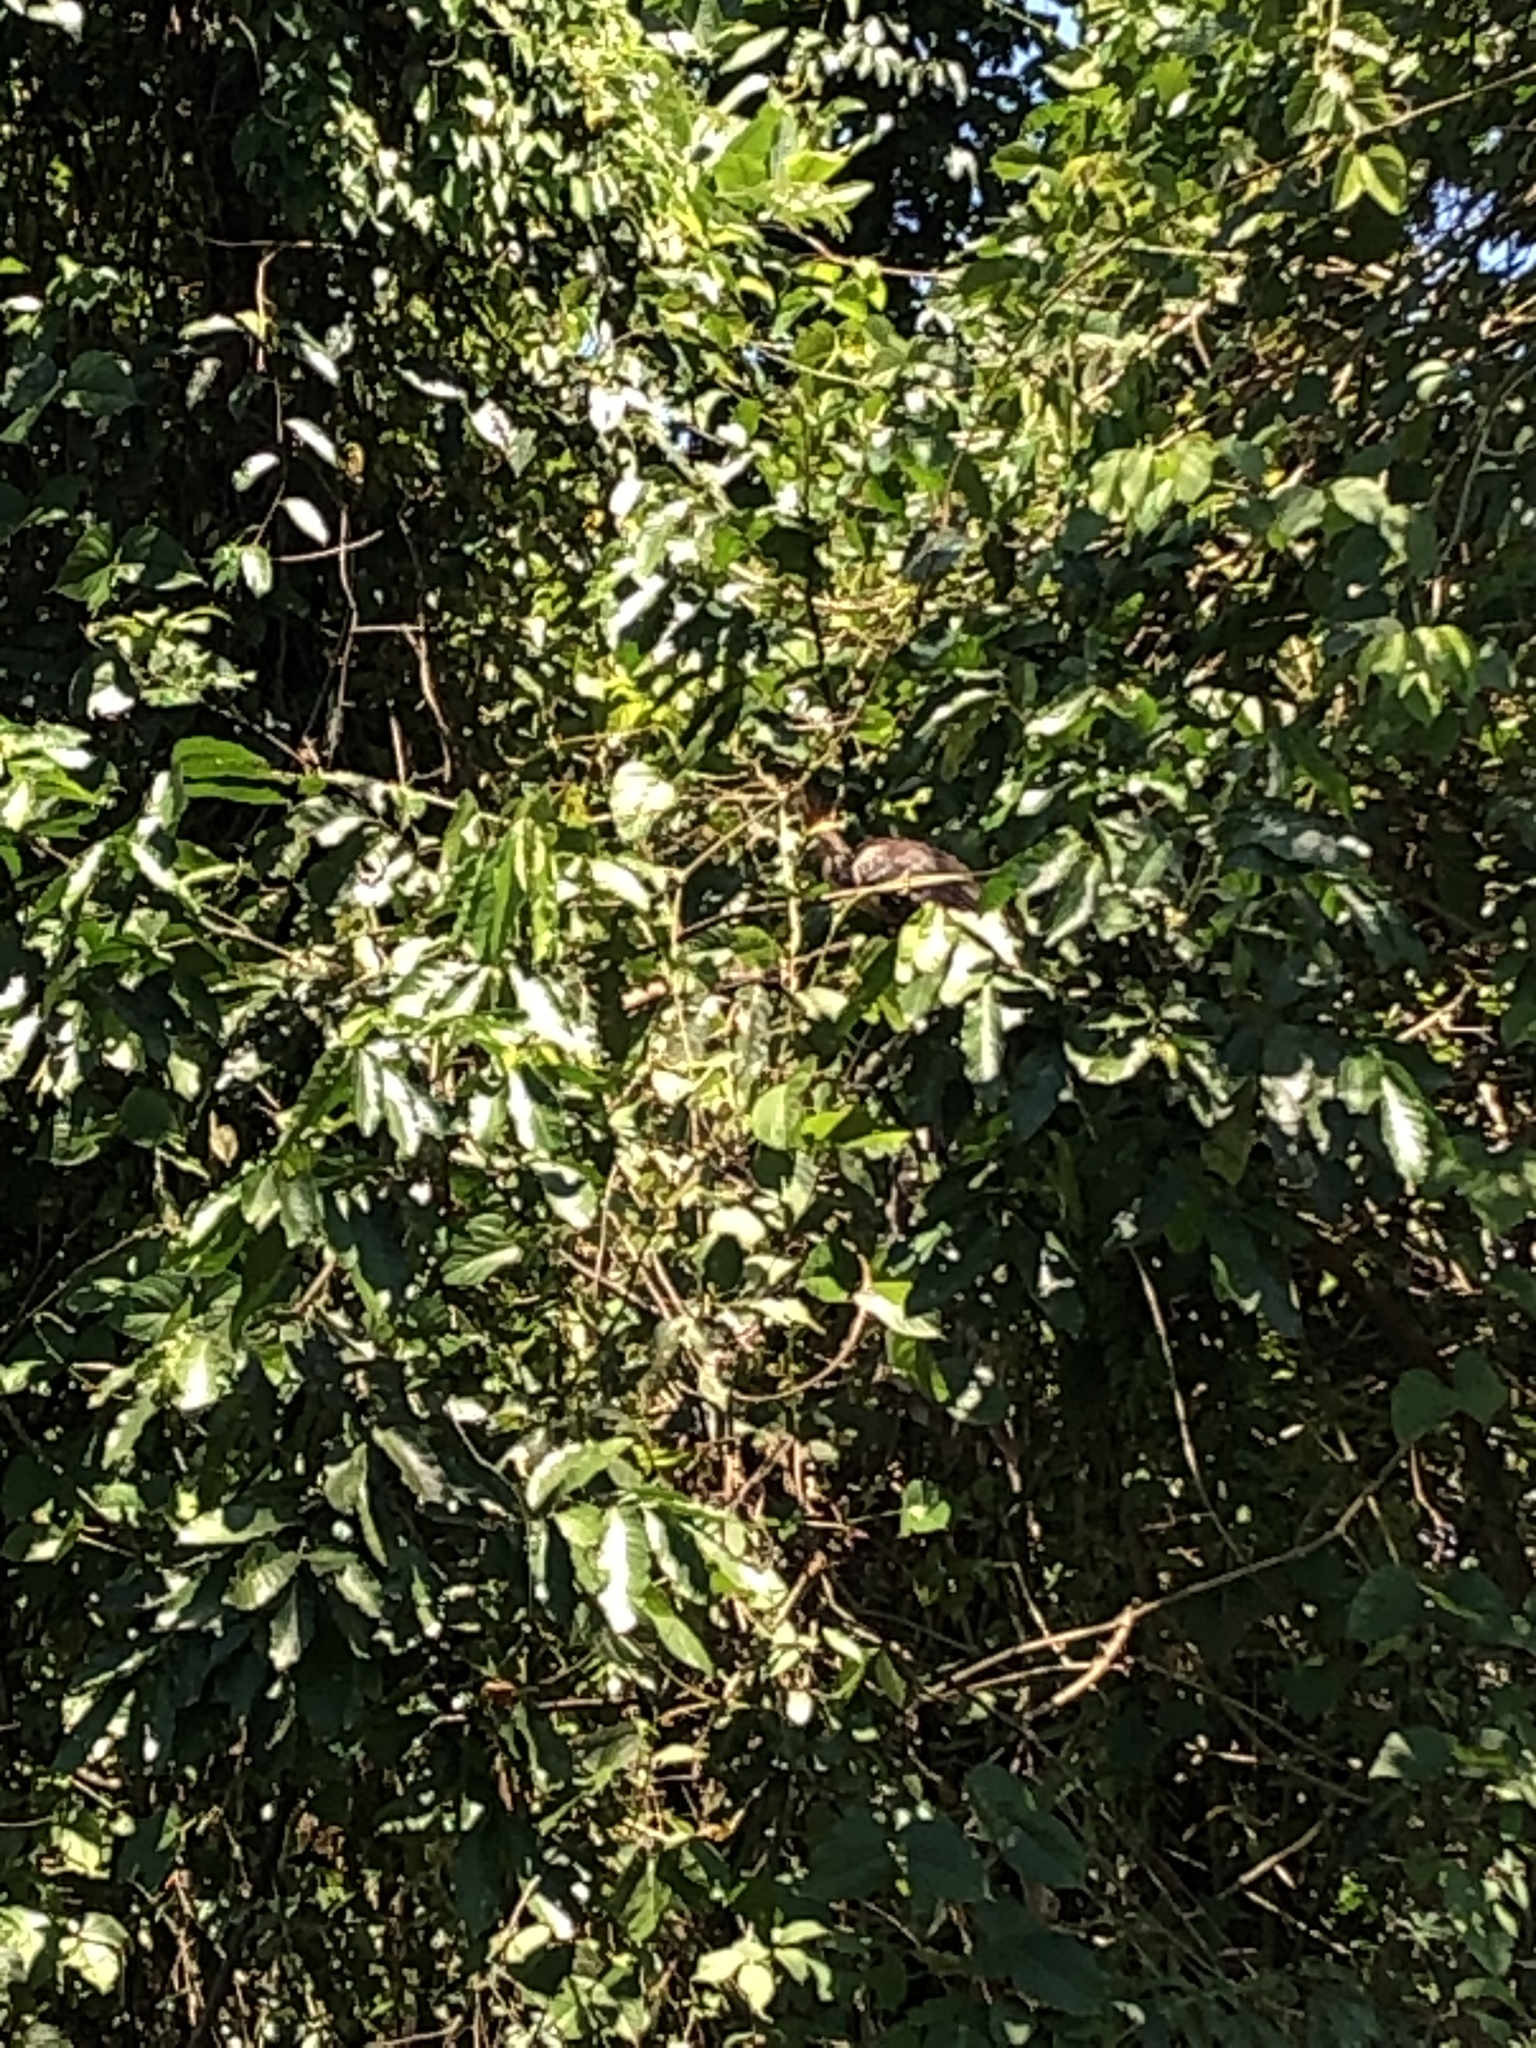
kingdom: Animalia
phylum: Chordata
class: Aves
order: Opisthocomiformes
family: Opisthocomidae
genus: Opisthocomus
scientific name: Opisthocomus hoazin
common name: Hoatzin
